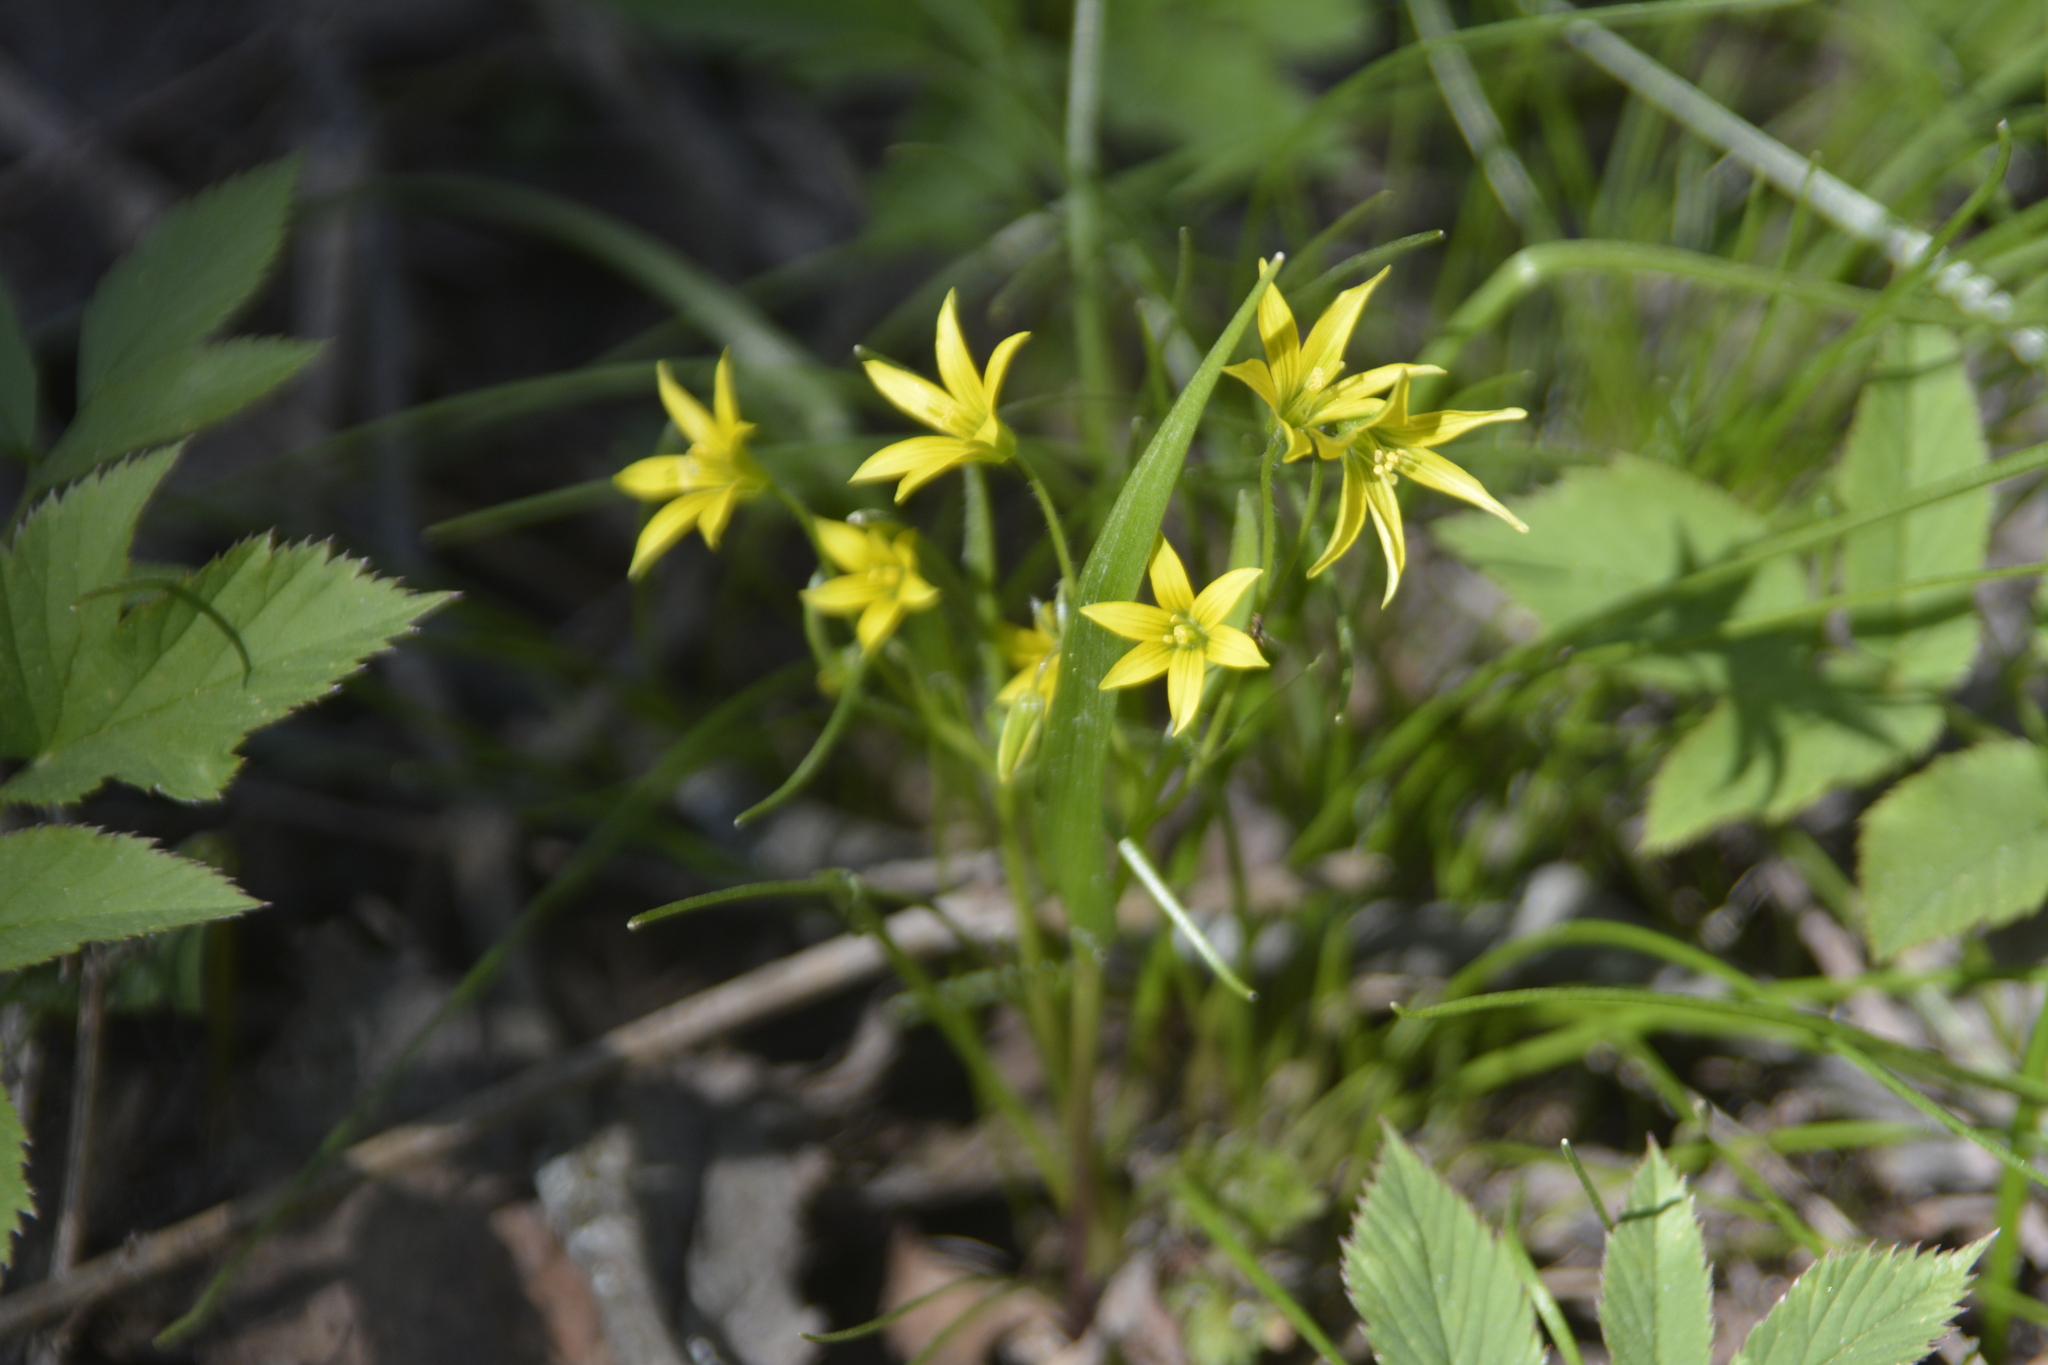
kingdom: Plantae
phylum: Tracheophyta
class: Liliopsida
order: Liliales
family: Liliaceae
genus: Gagea
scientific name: Gagea minima
